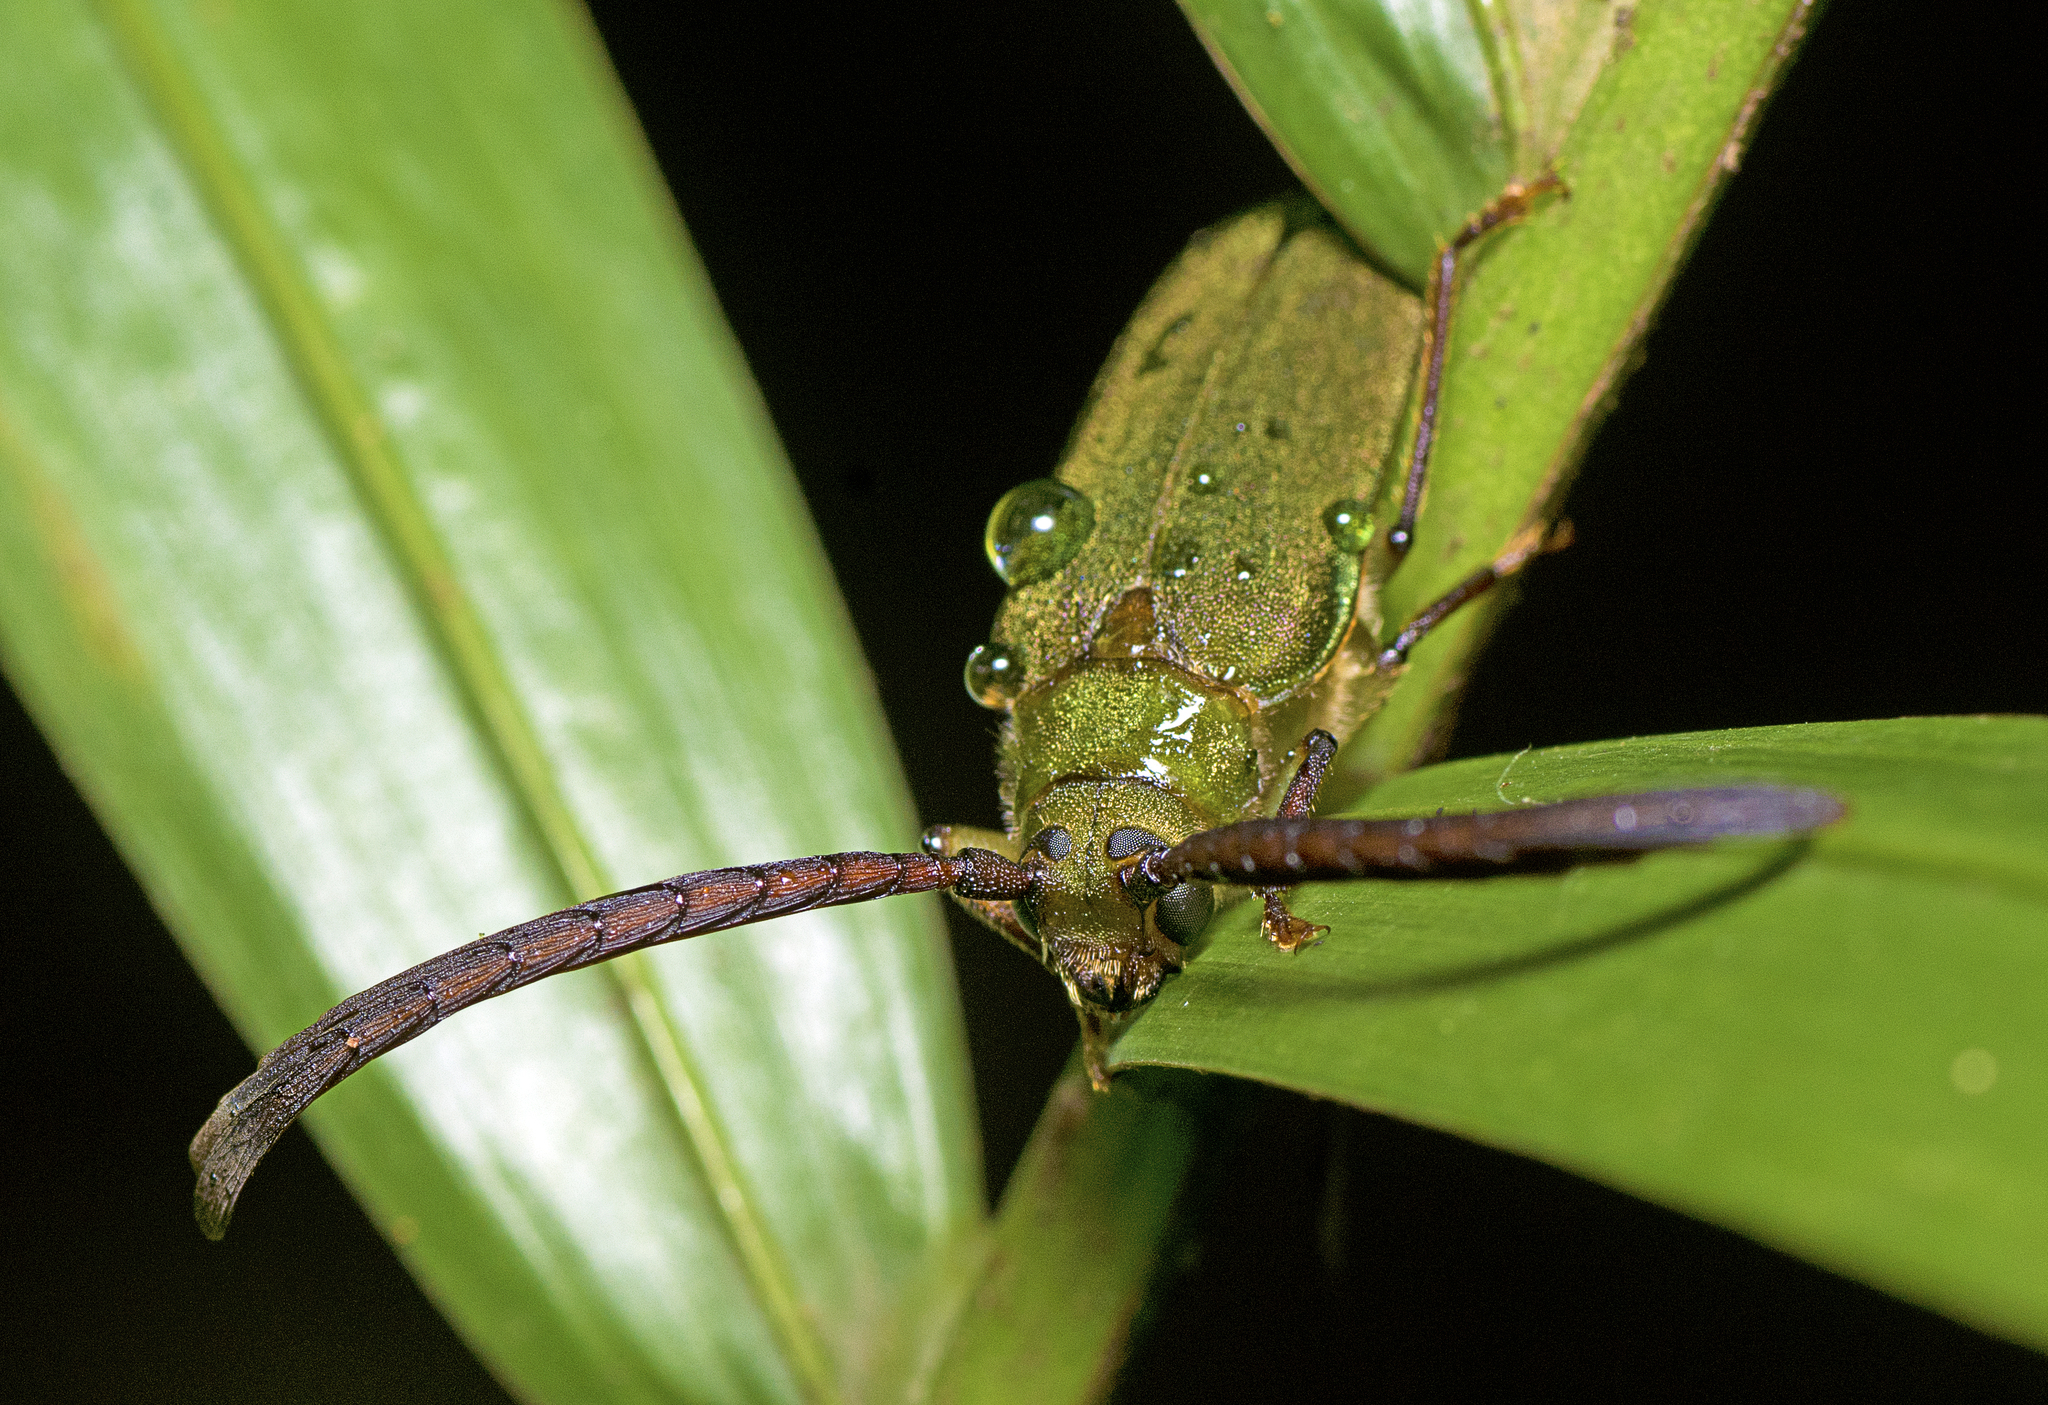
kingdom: Animalia
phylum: Arthropoda
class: Insecta
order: Coleoptera
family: Cerambycidae
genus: Rhipidocerus
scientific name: Rhipidocerus australasiae
